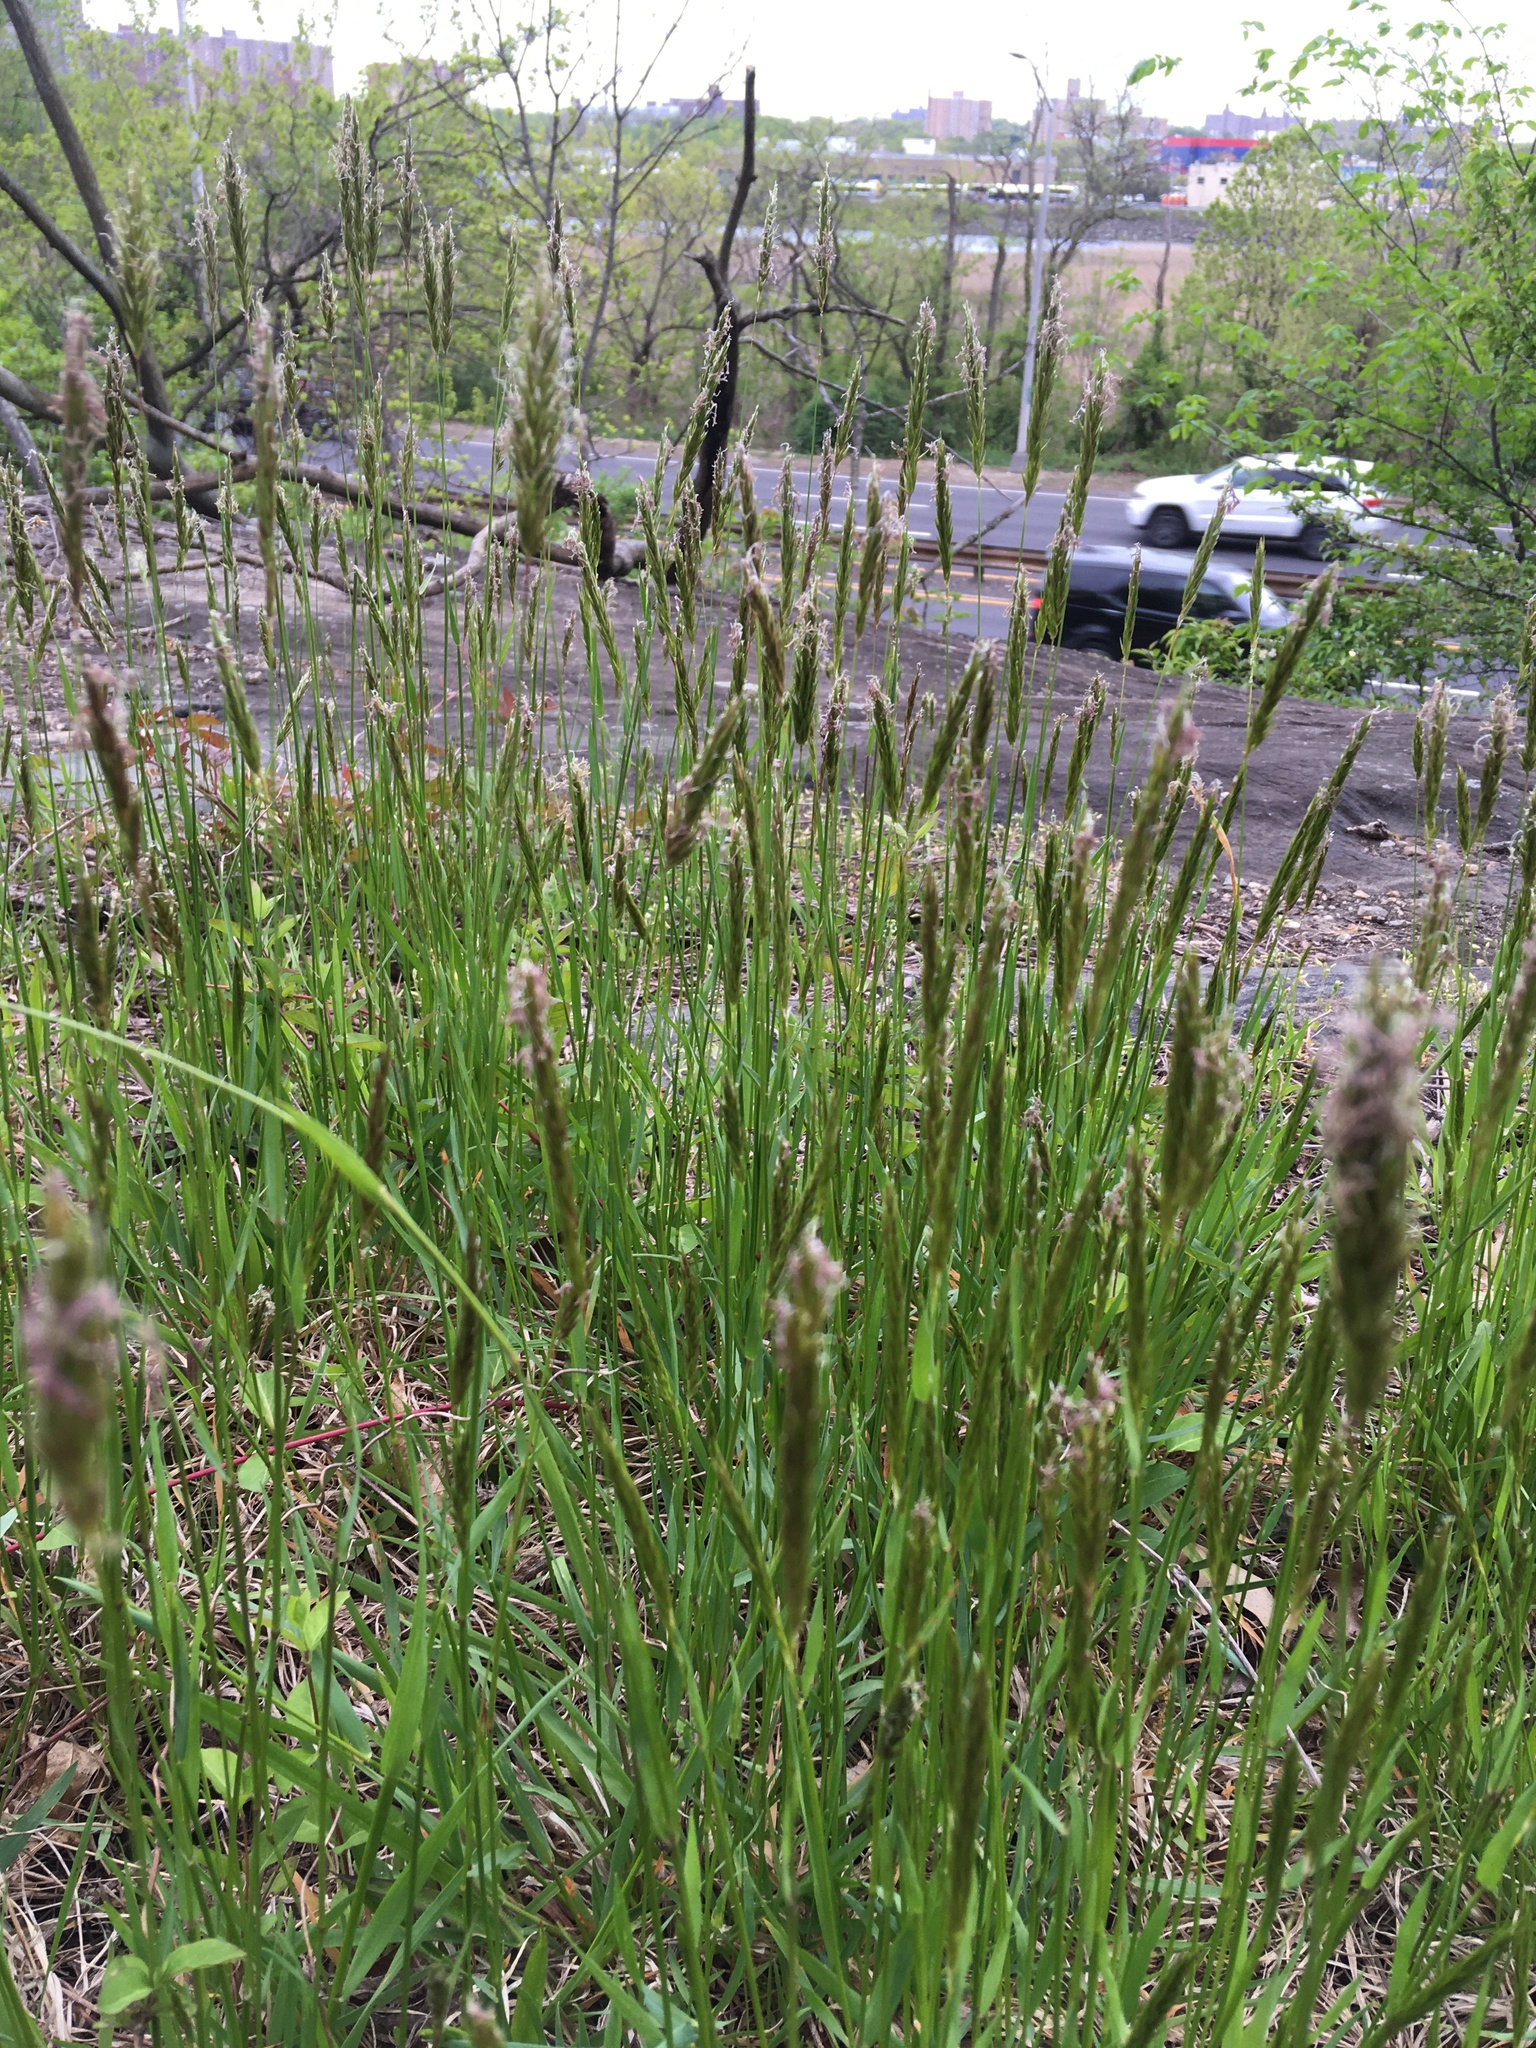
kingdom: Plantae
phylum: Tracheophyta
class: Liliopsida
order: Poales
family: Poaceae
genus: Anthoxanthum
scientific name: Anthoxanthum odoratum
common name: Sweet vernalgrass
